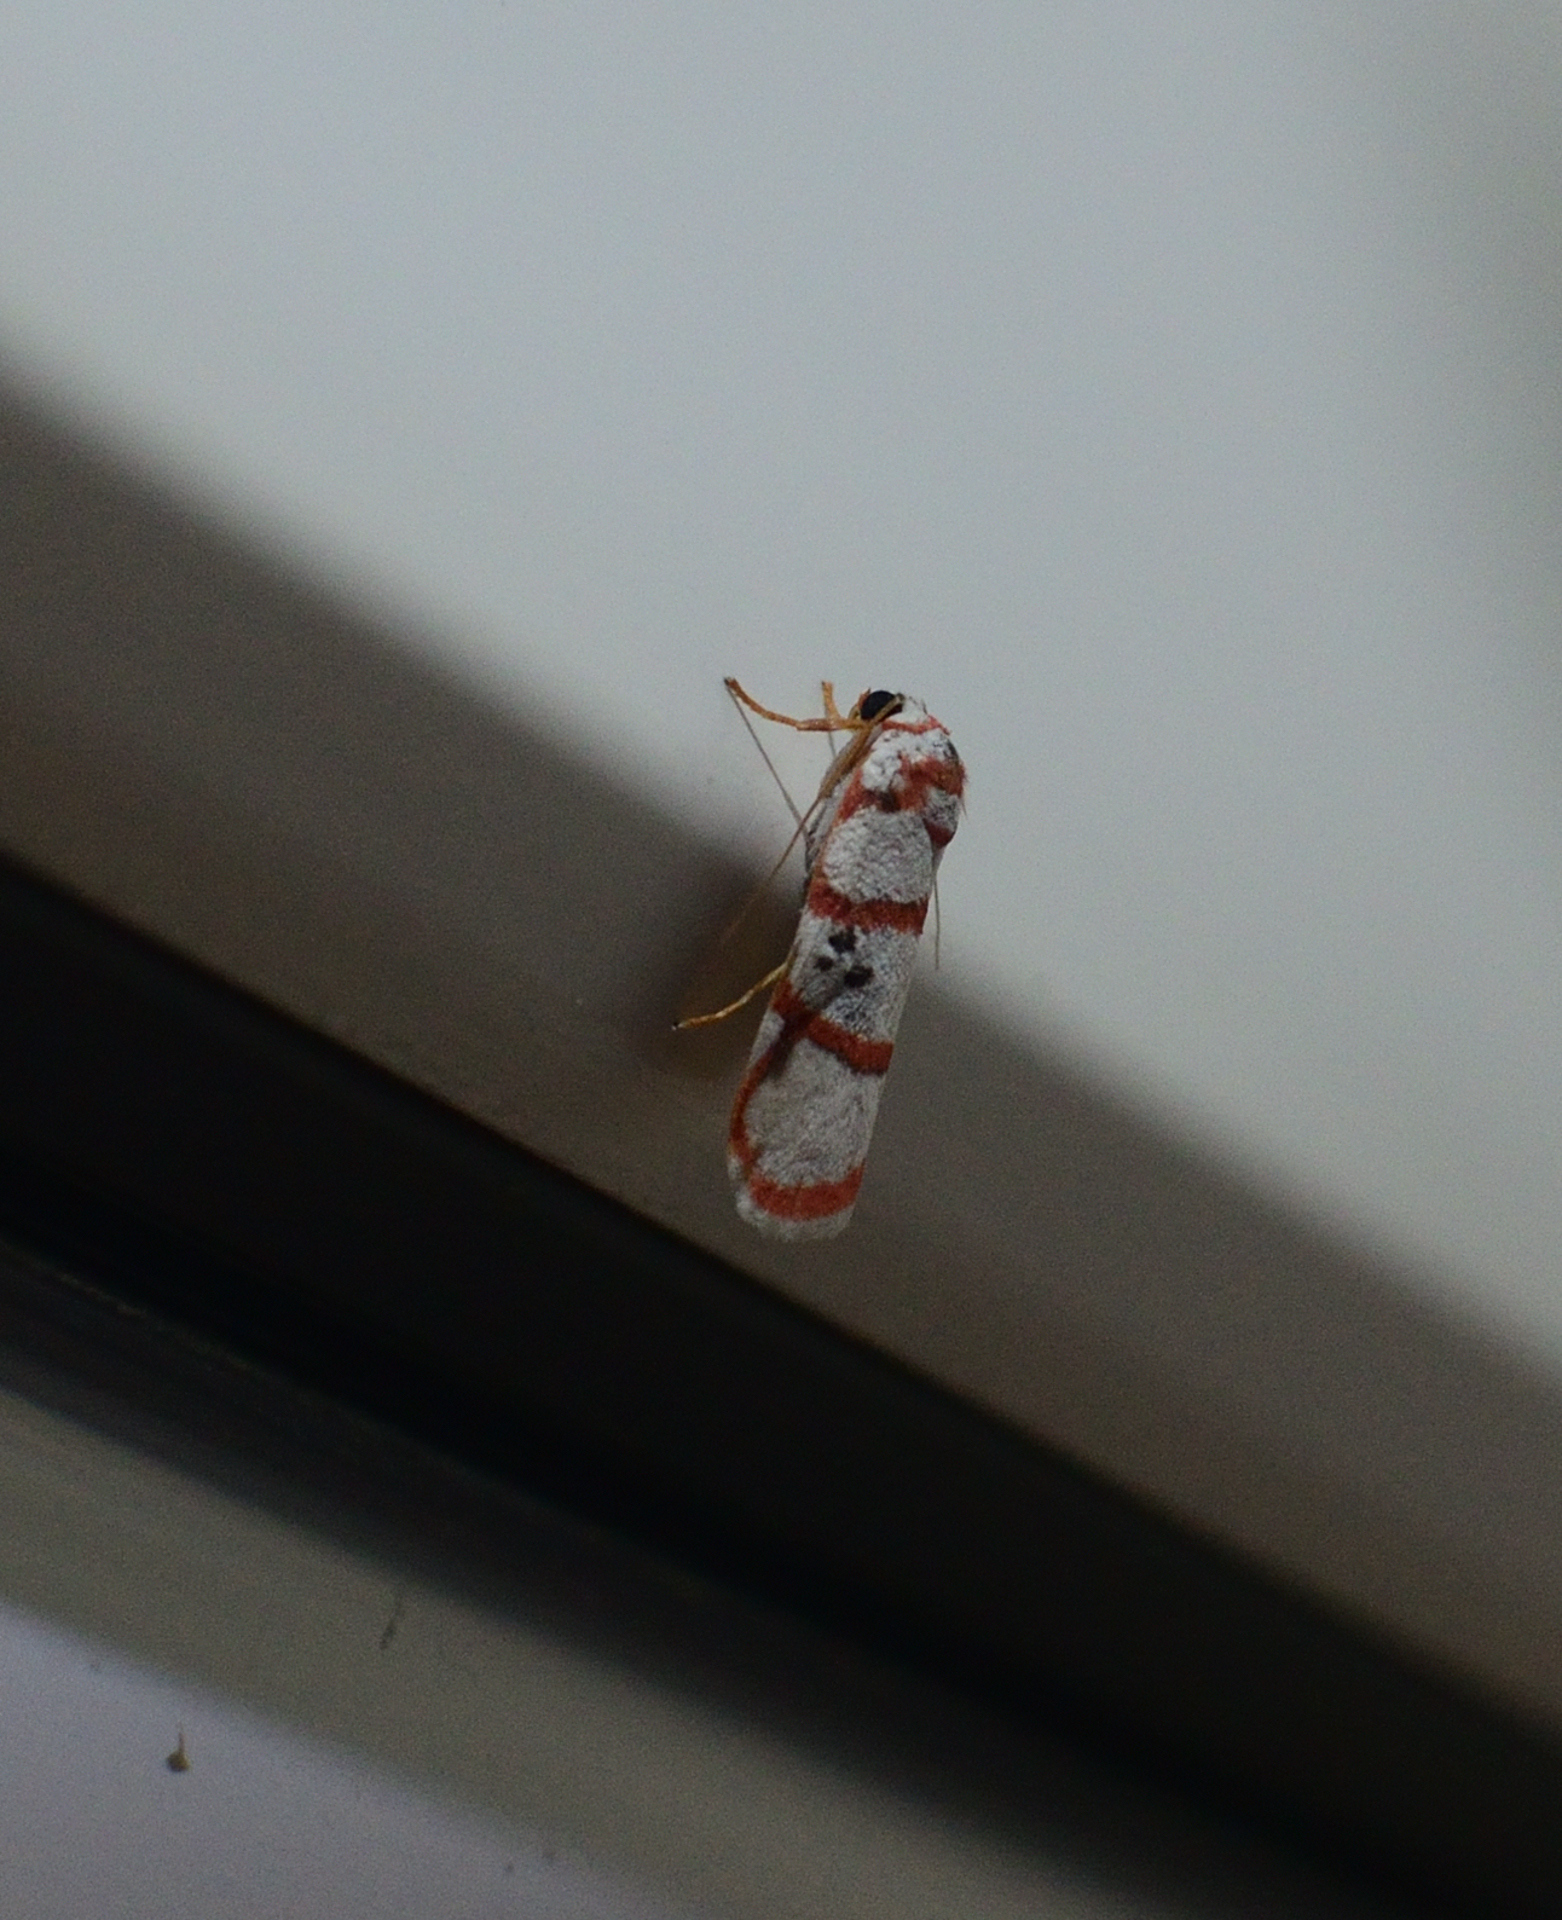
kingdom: Animalia
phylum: Arthropoda
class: Insecta
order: Lepidoptera
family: Erebidae
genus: Cyana
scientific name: Cyana peregrina
